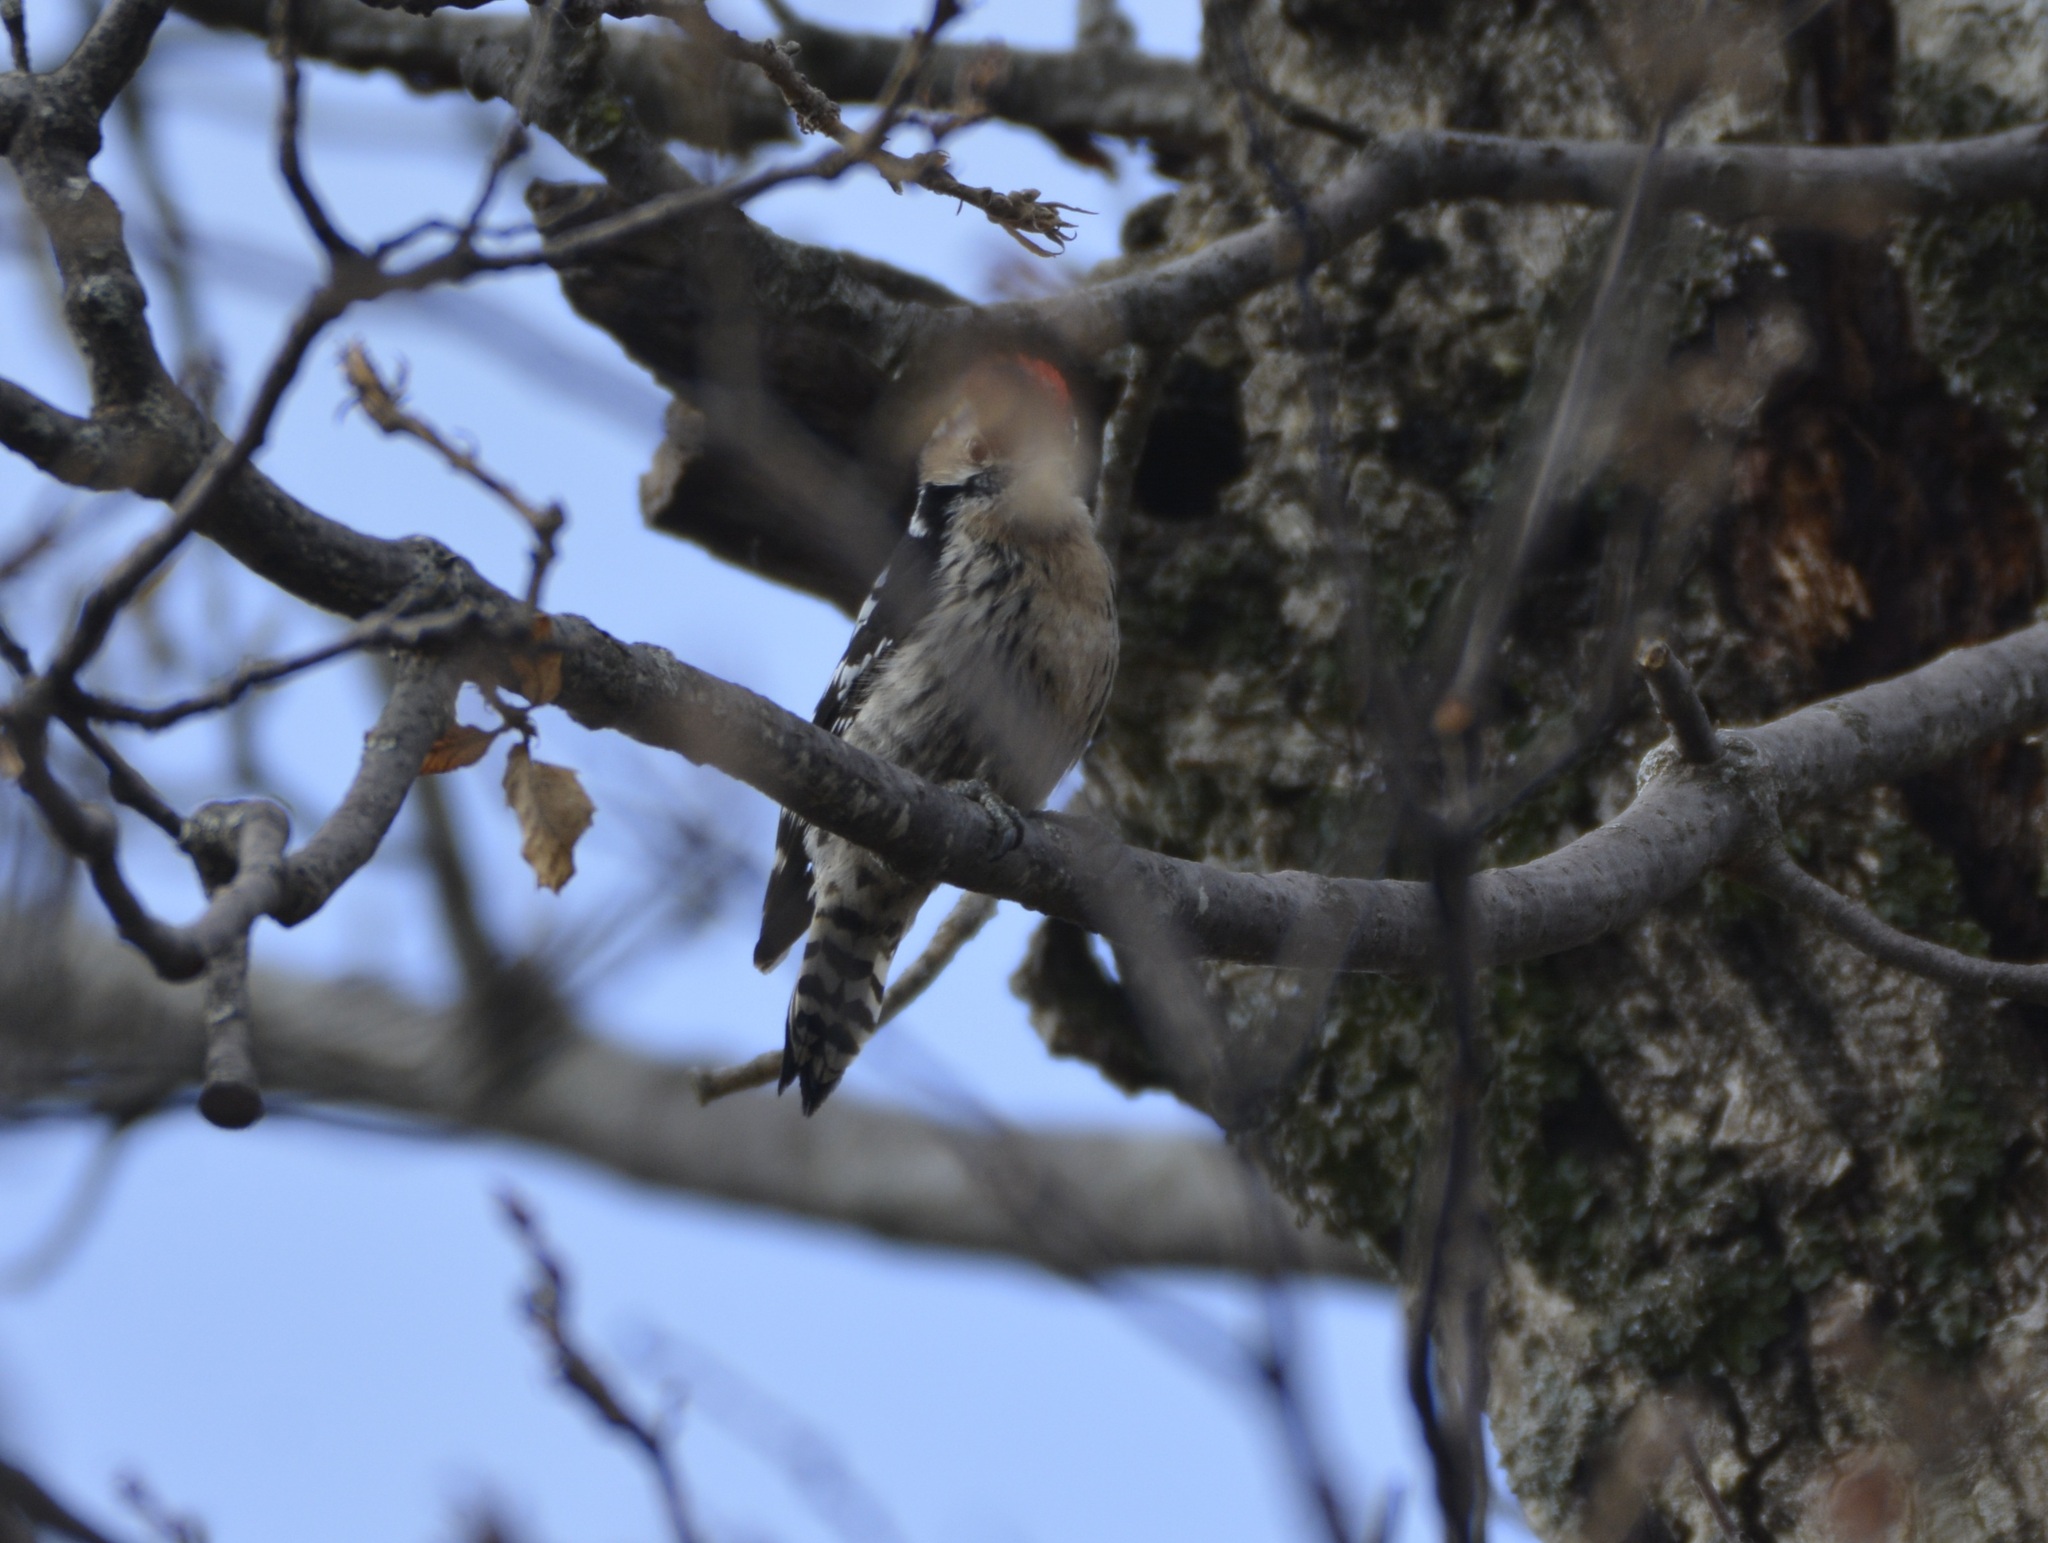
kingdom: Animalia
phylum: Chordata
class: Aves
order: Piciformes
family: Picidae
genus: Dryobates
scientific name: Dryobates minor
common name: Lesser spotted woodpecker
